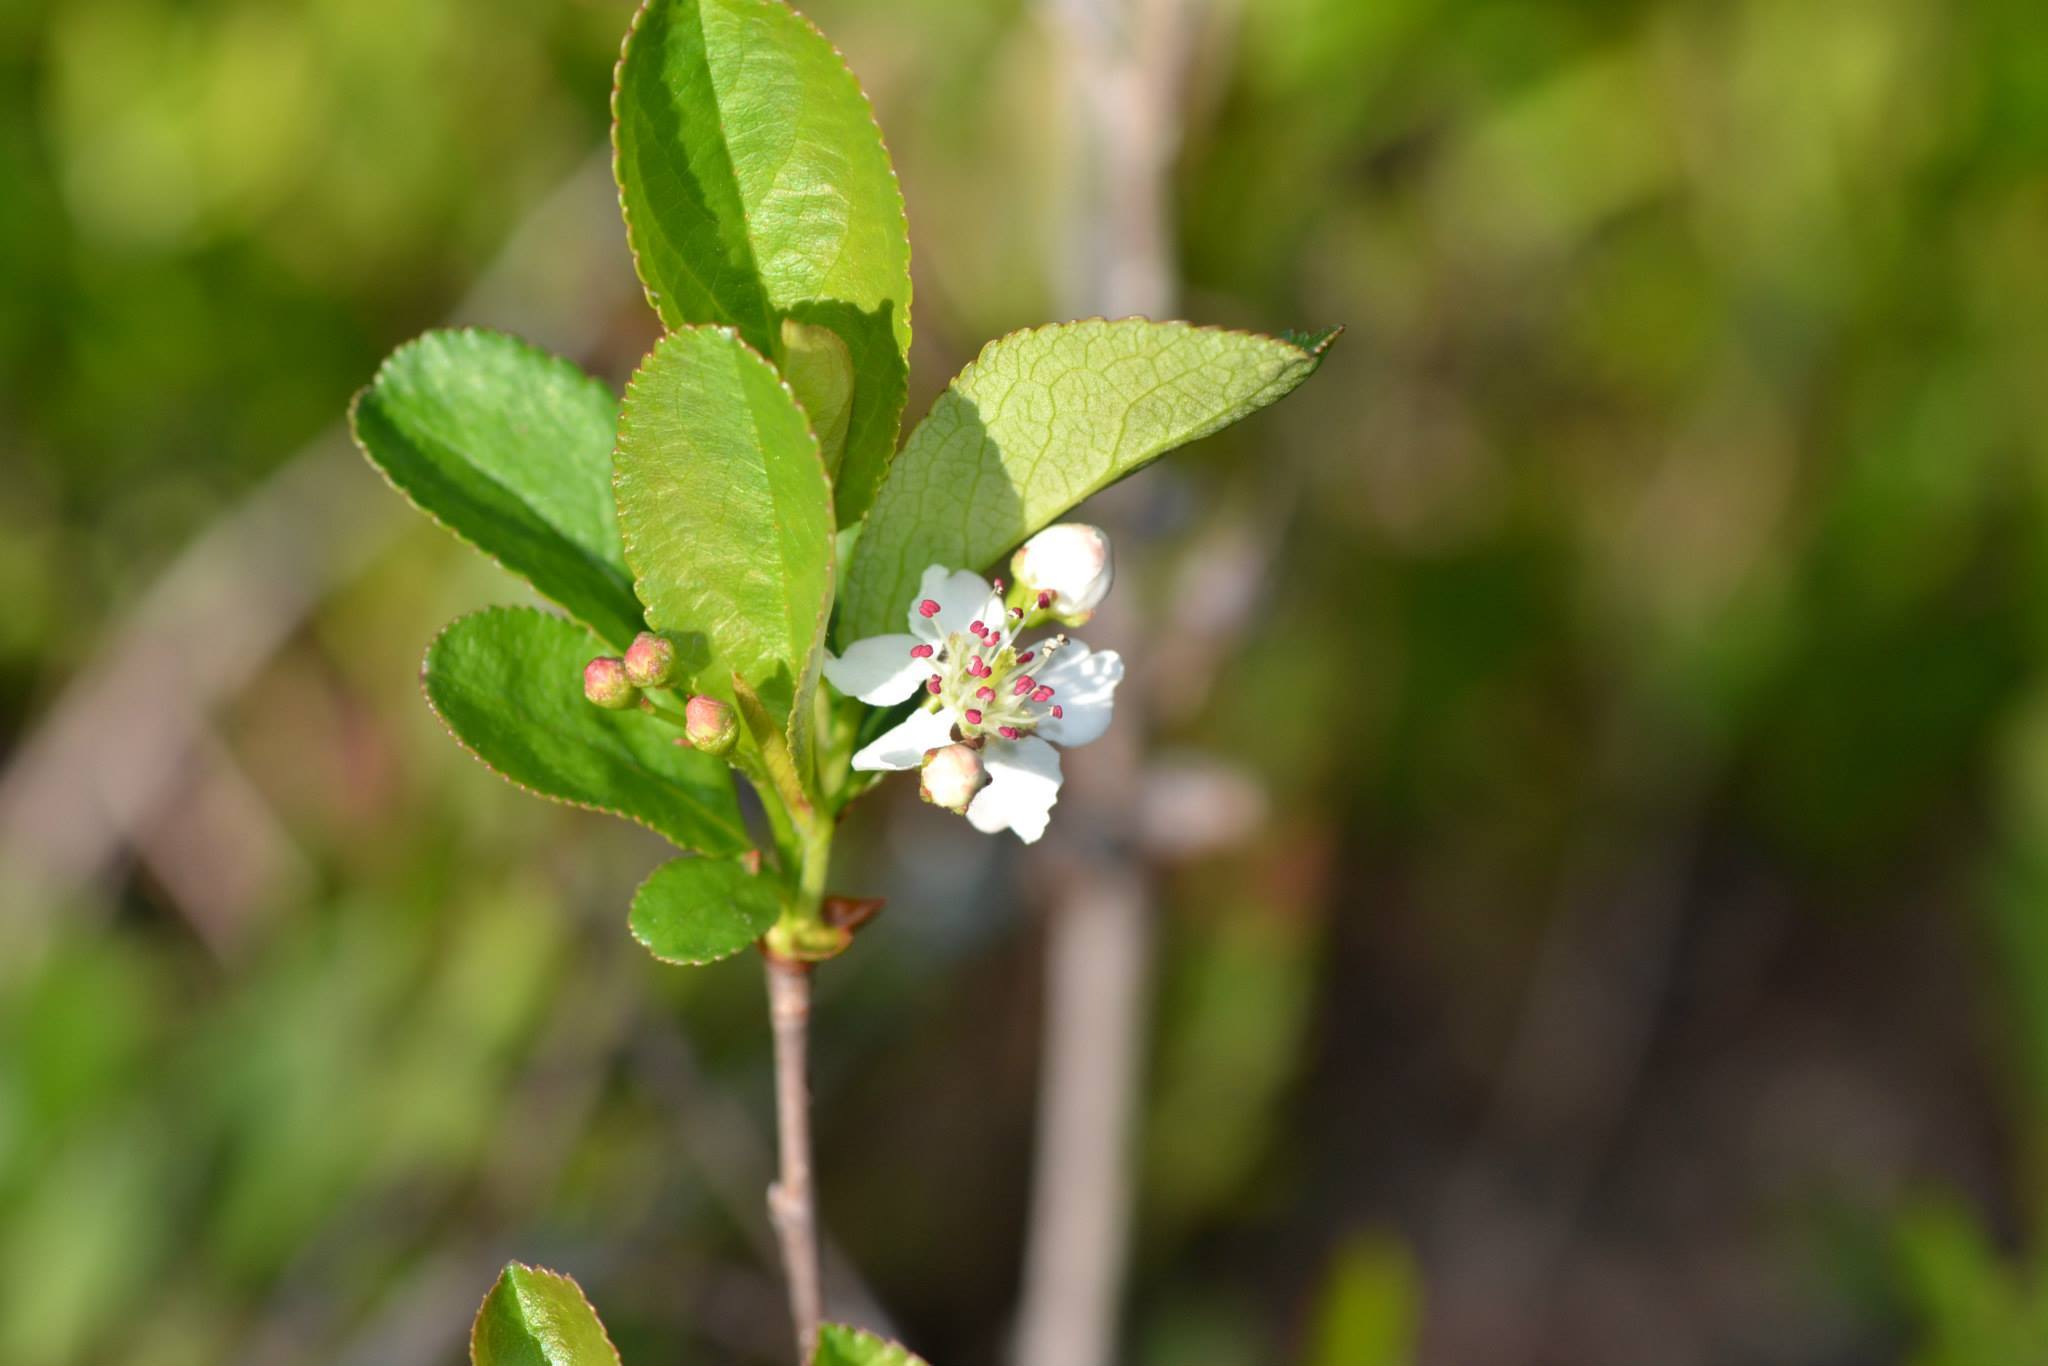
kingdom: Plantae
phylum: Tracheophyta
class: Magnoliopsida
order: Rosales
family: Rosaceae
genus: Aronia
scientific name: Aronia melanocarpa
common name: Black chokeberry
